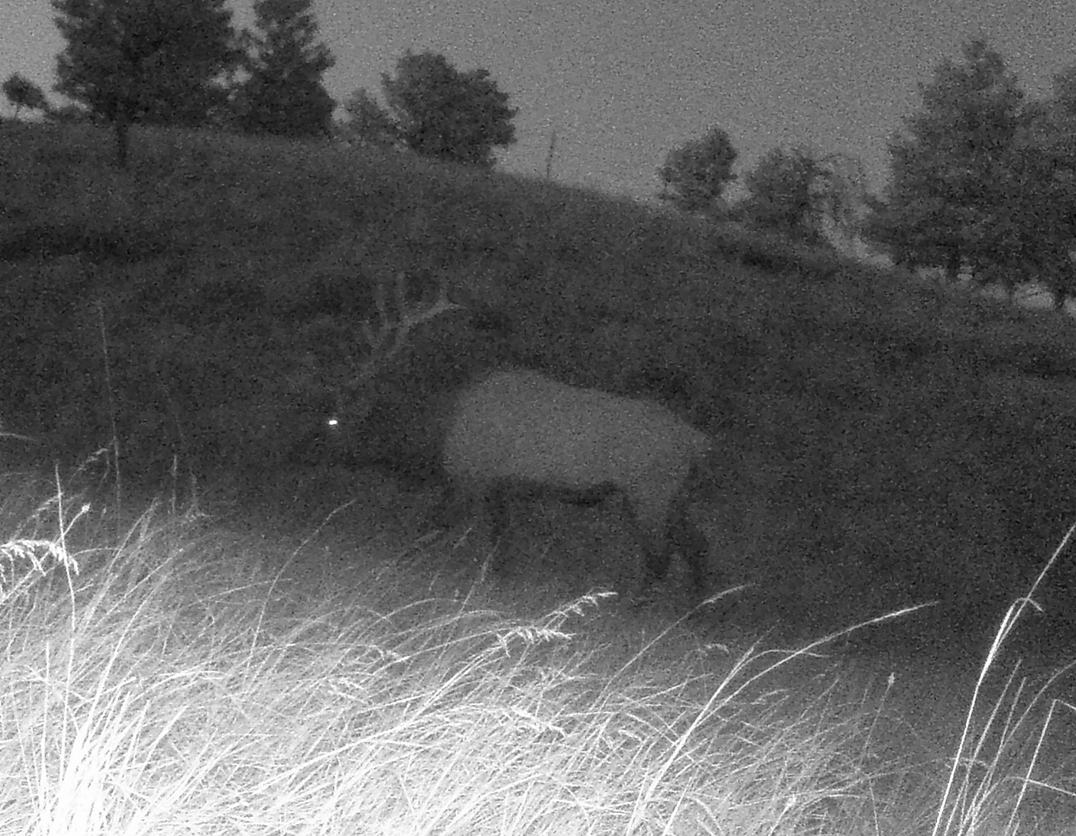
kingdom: Animalia
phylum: Chordata
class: Mammalia
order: Artiodactyla
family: Cervidae
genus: Cervus
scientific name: Cervus elaphus
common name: Red deer
